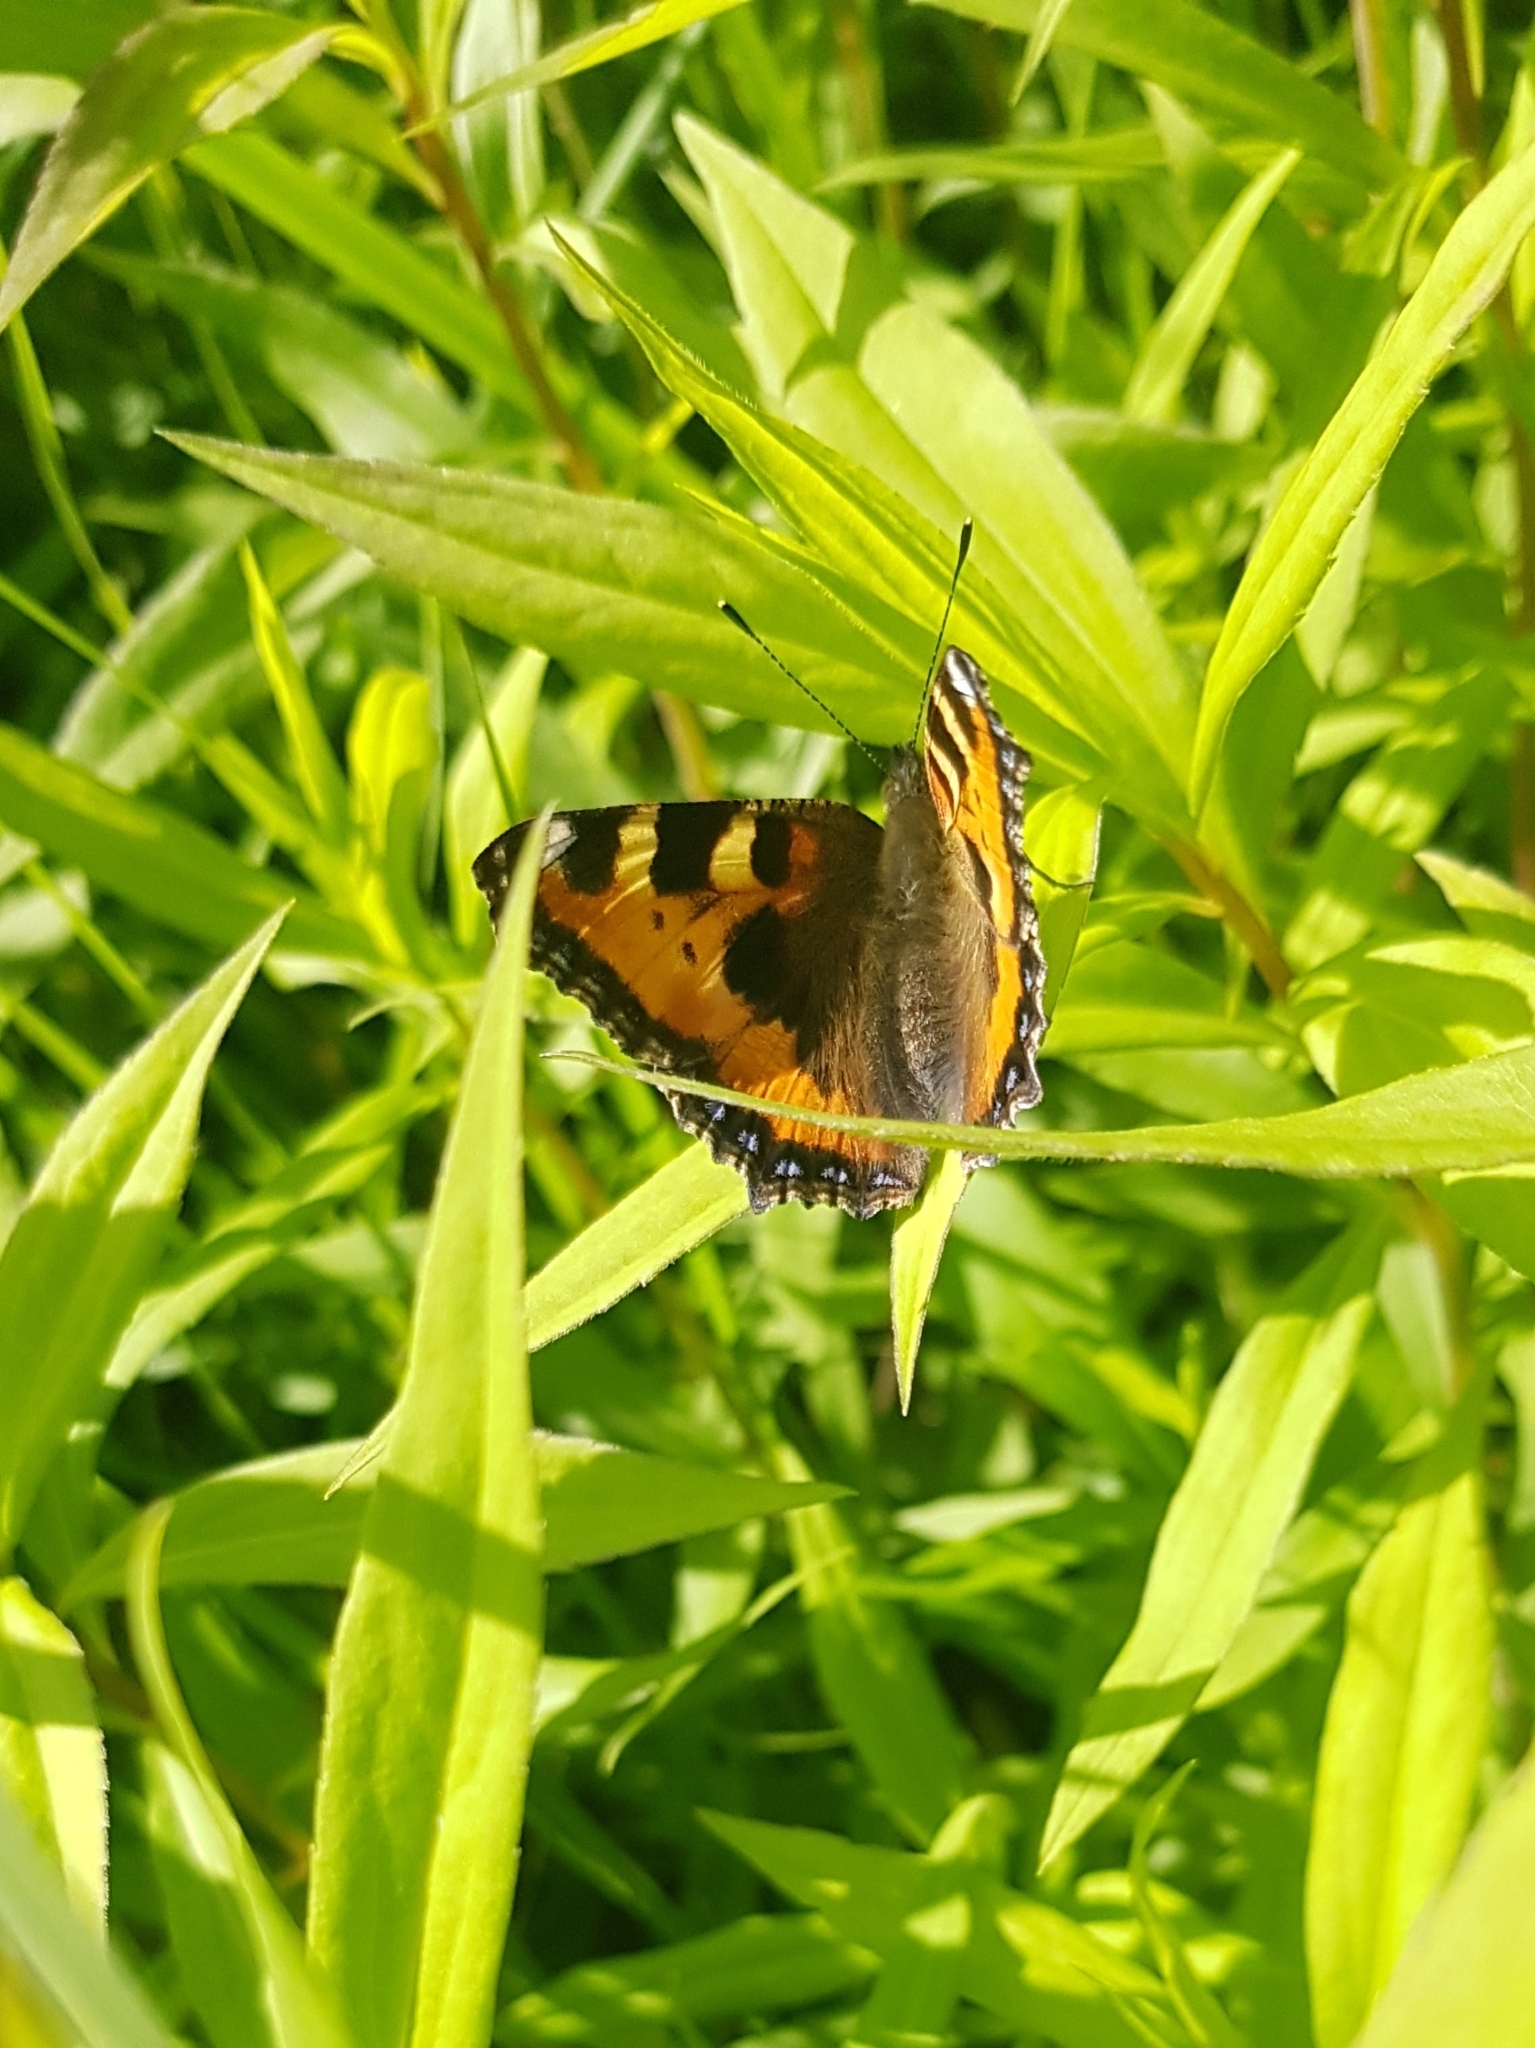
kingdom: Animalia
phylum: Arthropoda
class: Insecta
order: Lepidoptera
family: Nymphalidae
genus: Aglais
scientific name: Aglais urticae
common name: Small tortoiseshell
